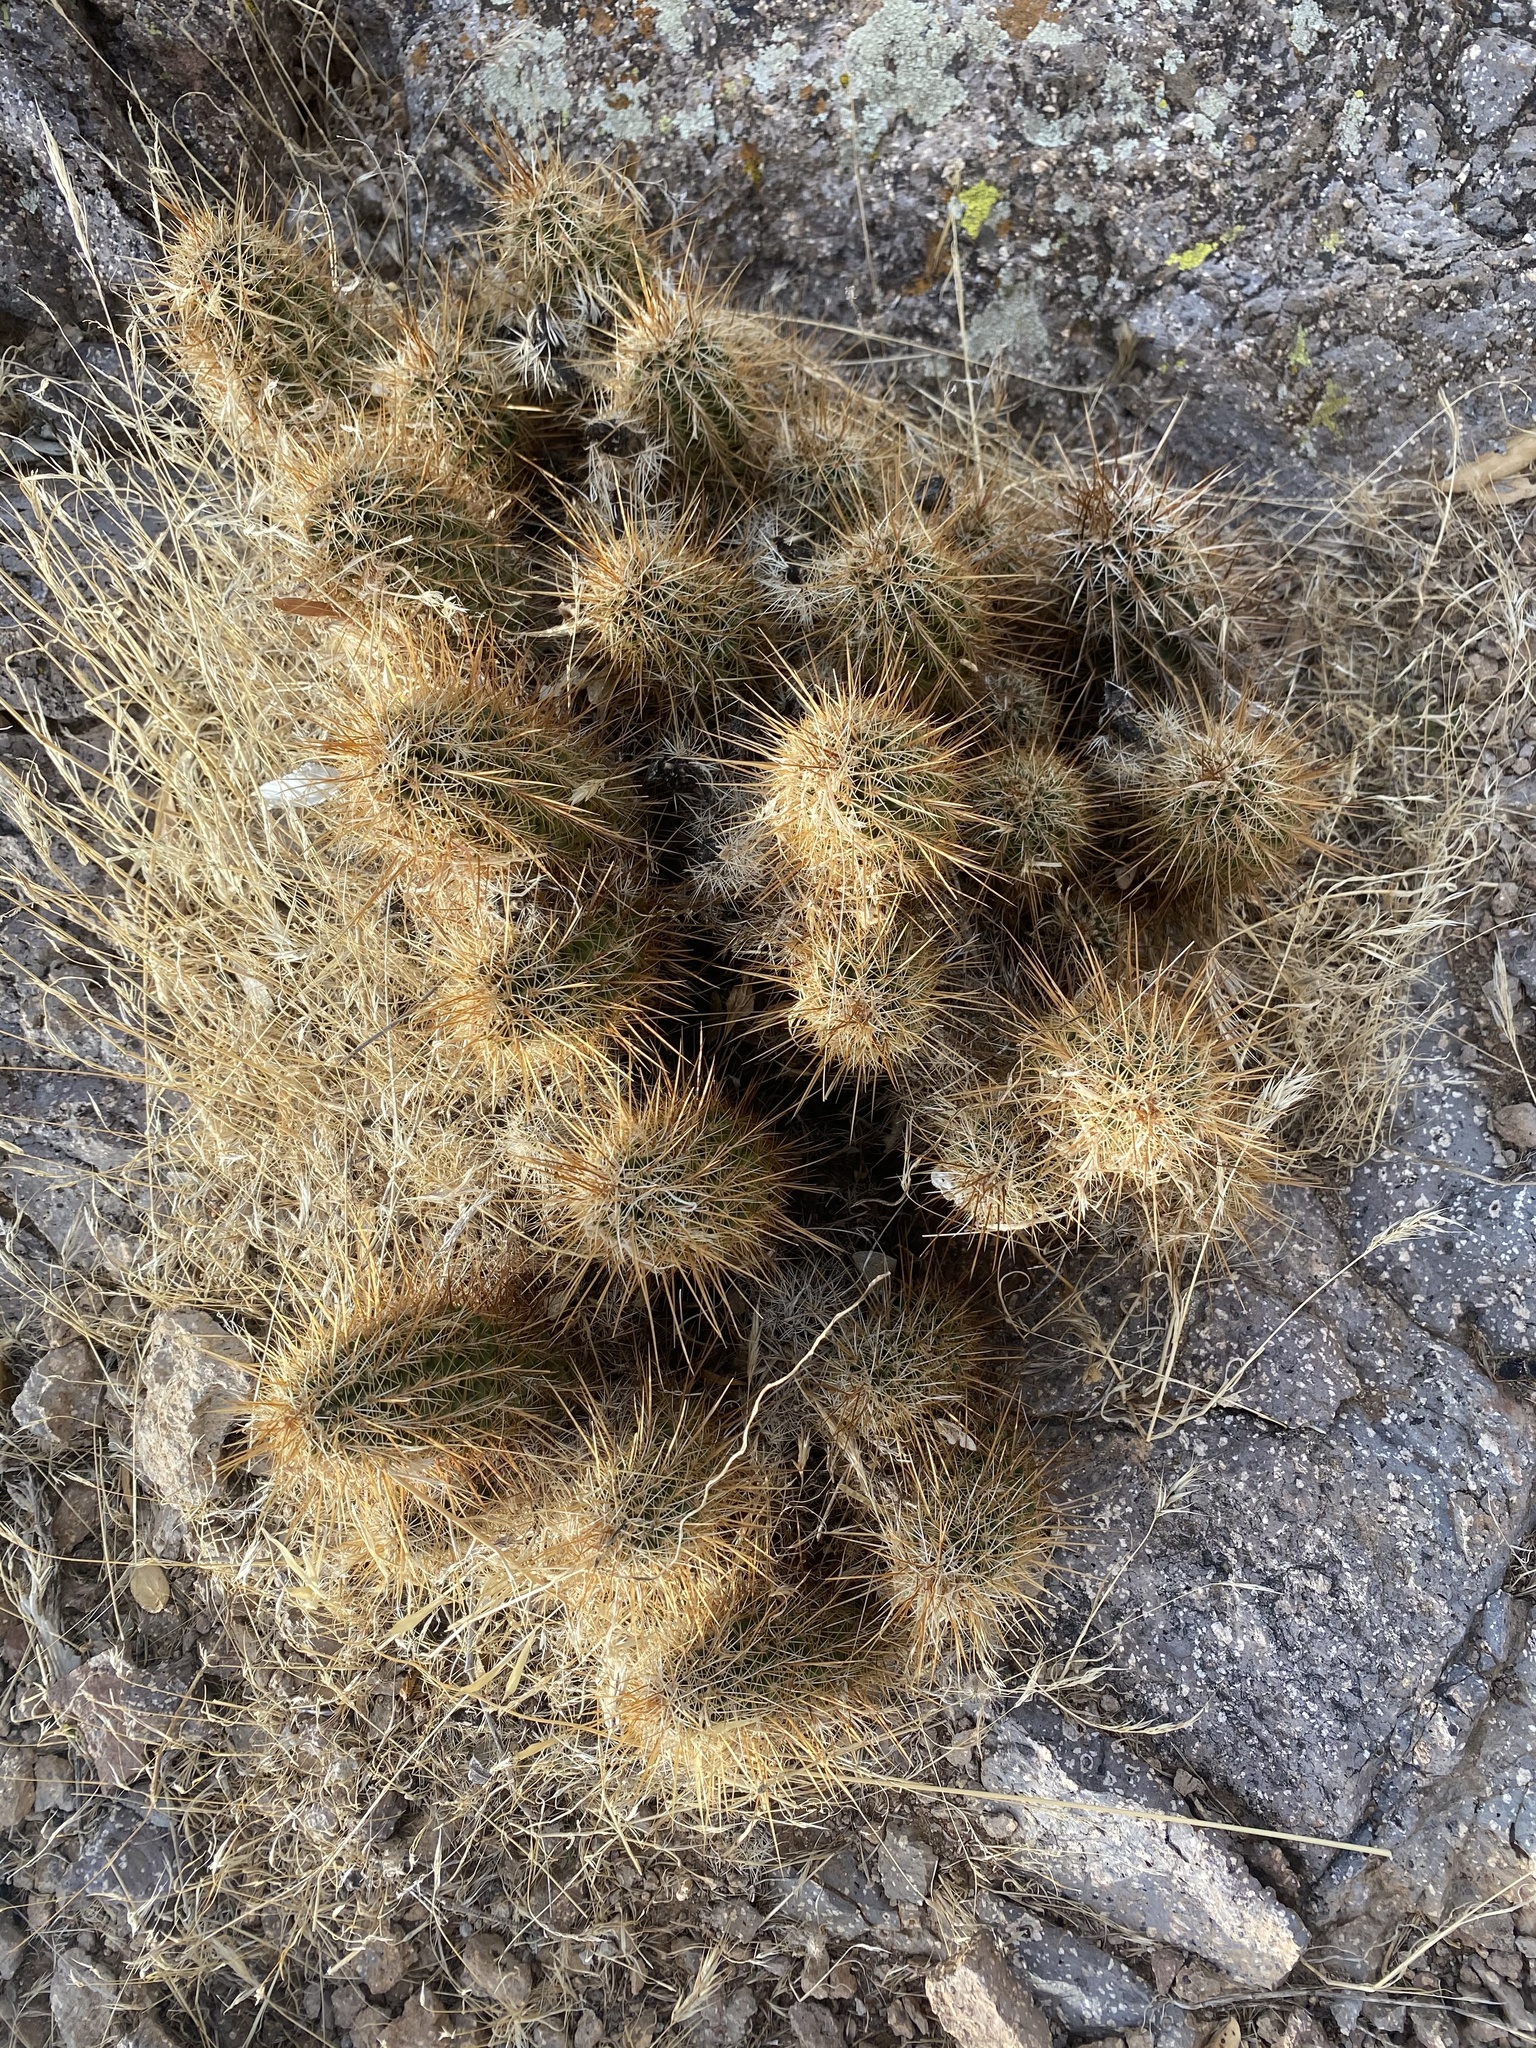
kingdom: Plantae
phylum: Tracheophyta
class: Magnoliopsida
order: Caryophyllales
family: Cactaceae
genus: Echinocereus
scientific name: Echinocereus engelmannii
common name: Engelmann's hedgehog cactus
